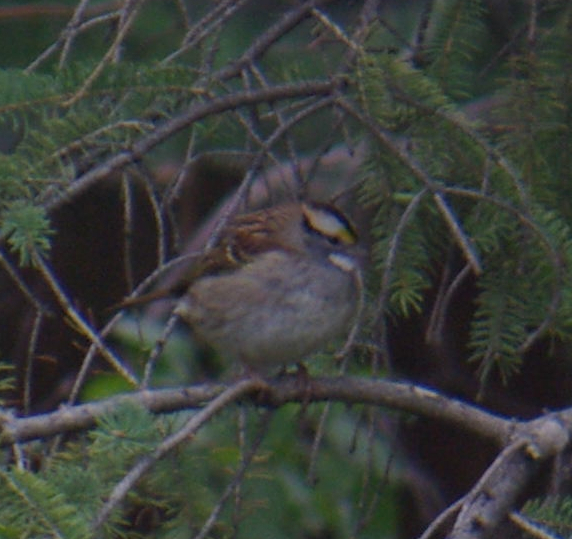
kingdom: Animalia
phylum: Chordata
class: Aves
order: Passeriformes
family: Passerellidae
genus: Zonotrichia
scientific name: Zonotrichia albicollis
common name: White-throated sparrow
